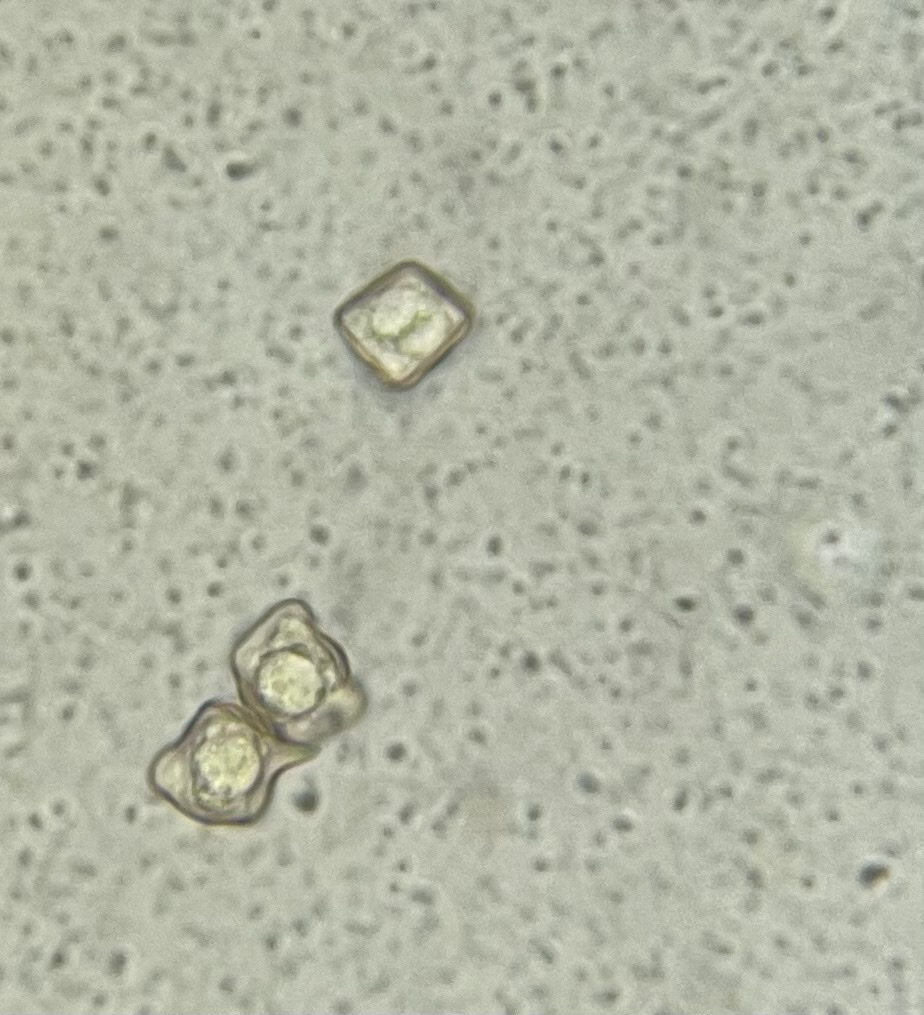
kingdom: Fungi
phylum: Basidiomycota
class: Agaricomycetes
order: Agaricales
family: Entolomataceae
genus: Entoloma
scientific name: Entoloma quadratum
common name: Salmon pinkgill
